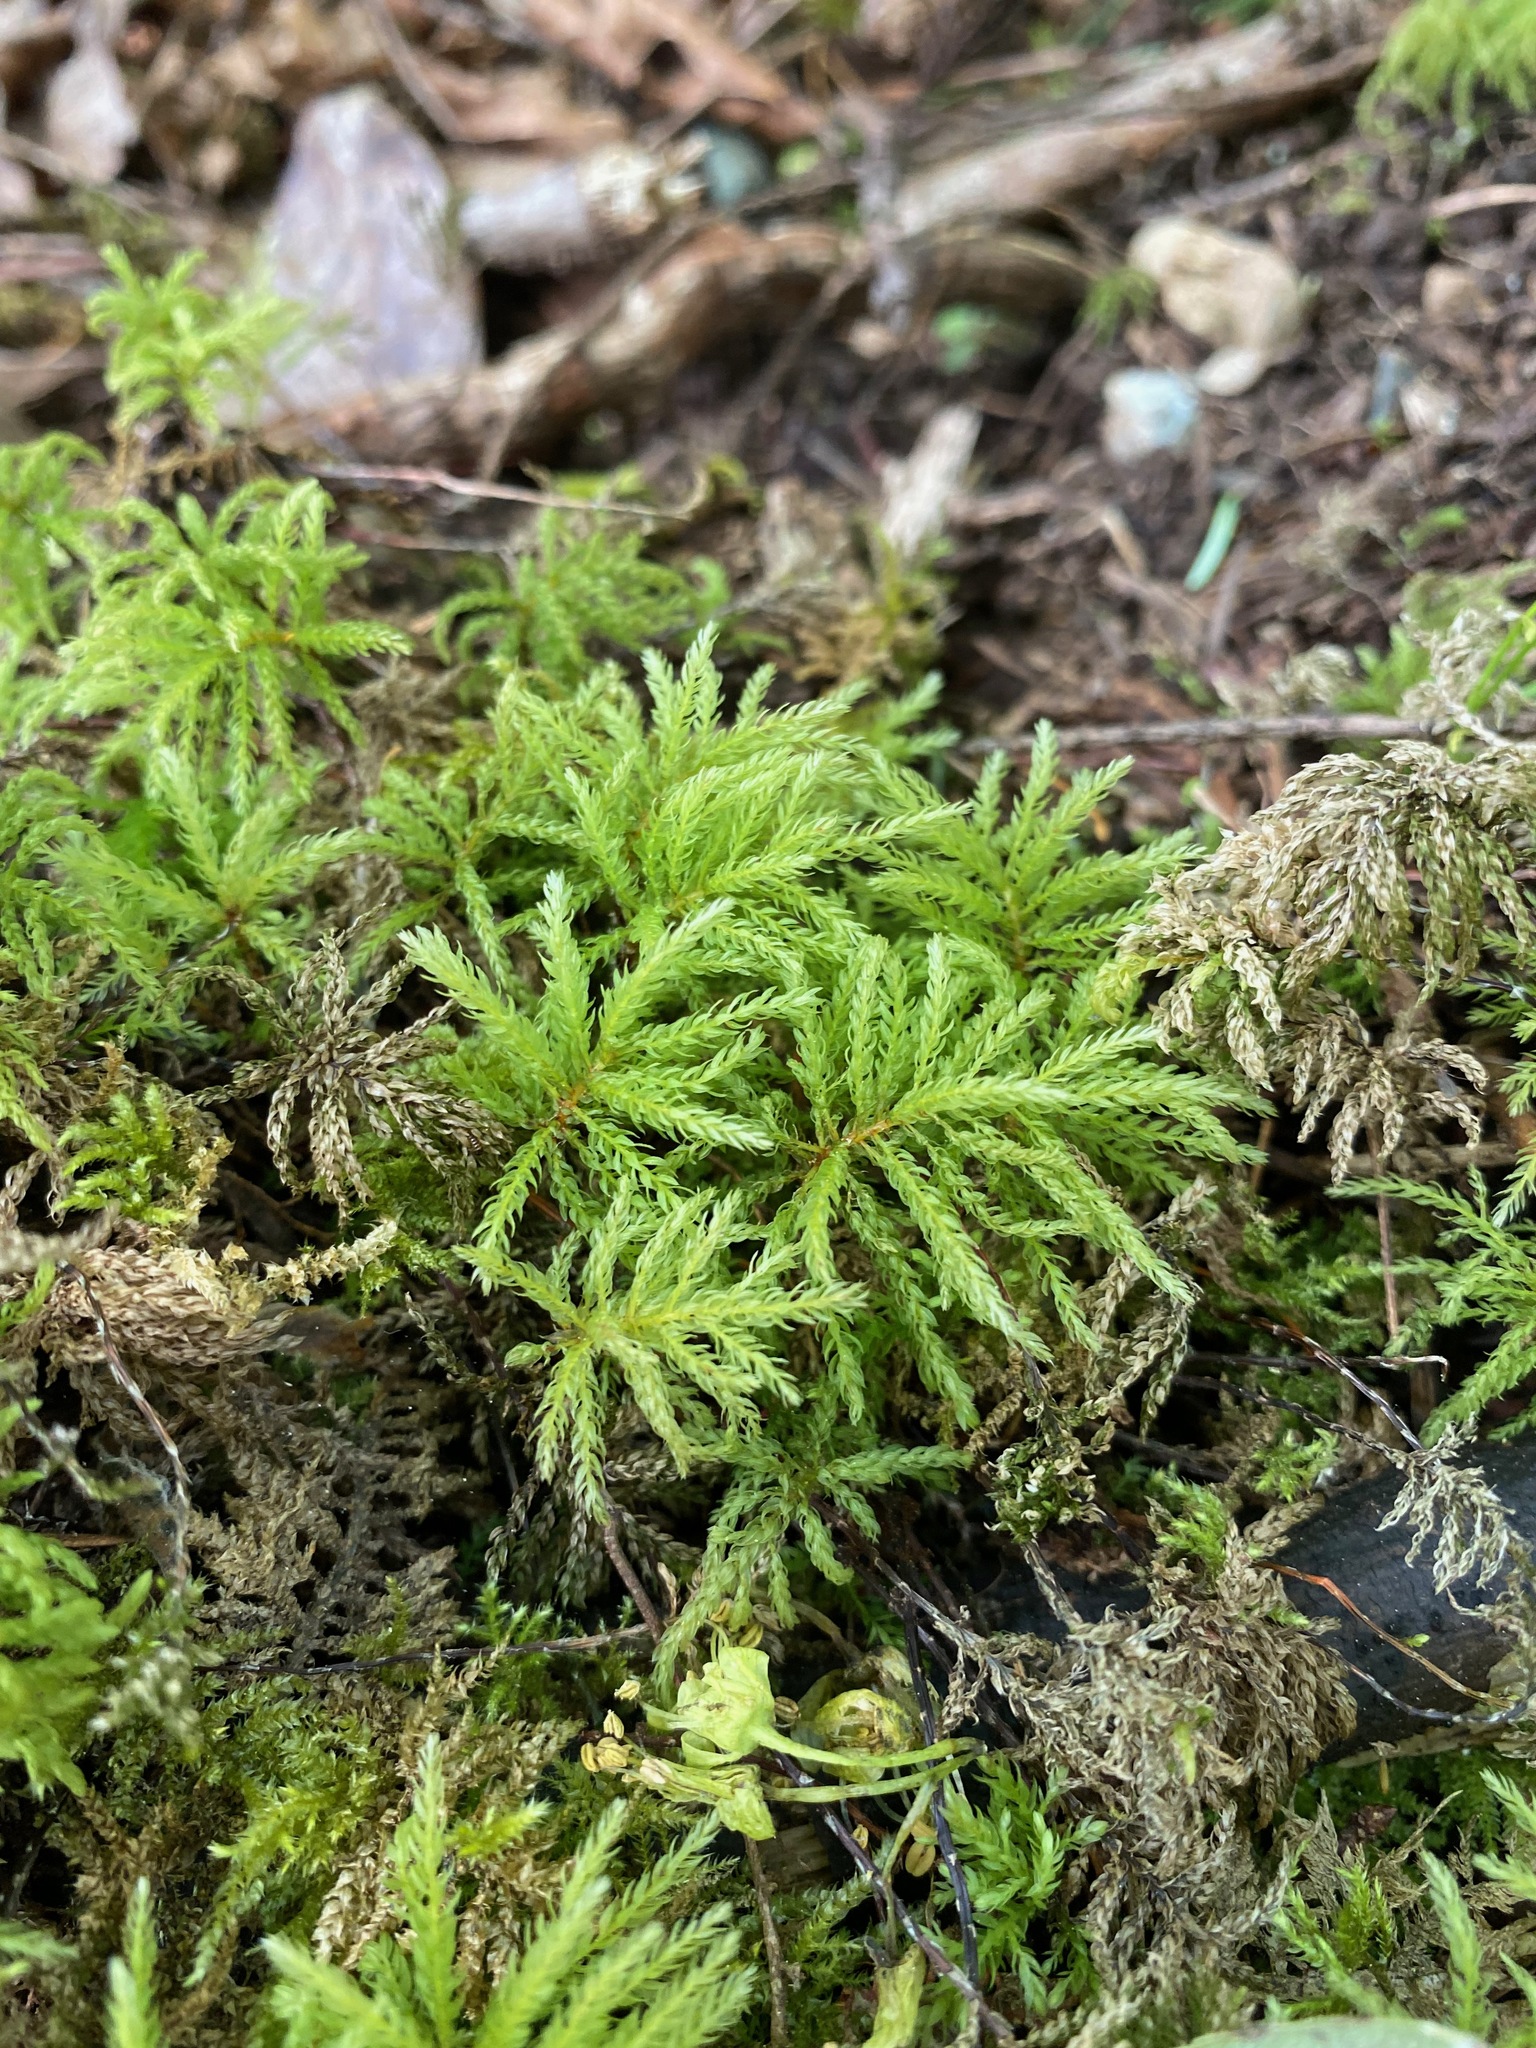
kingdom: Plantae
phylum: Bryophyta
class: Bryopsida
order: Bryales
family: Mniaceae
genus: Leucolepis
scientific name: Leucolepis acanthoneura
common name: Leucolepis umbrella moss
